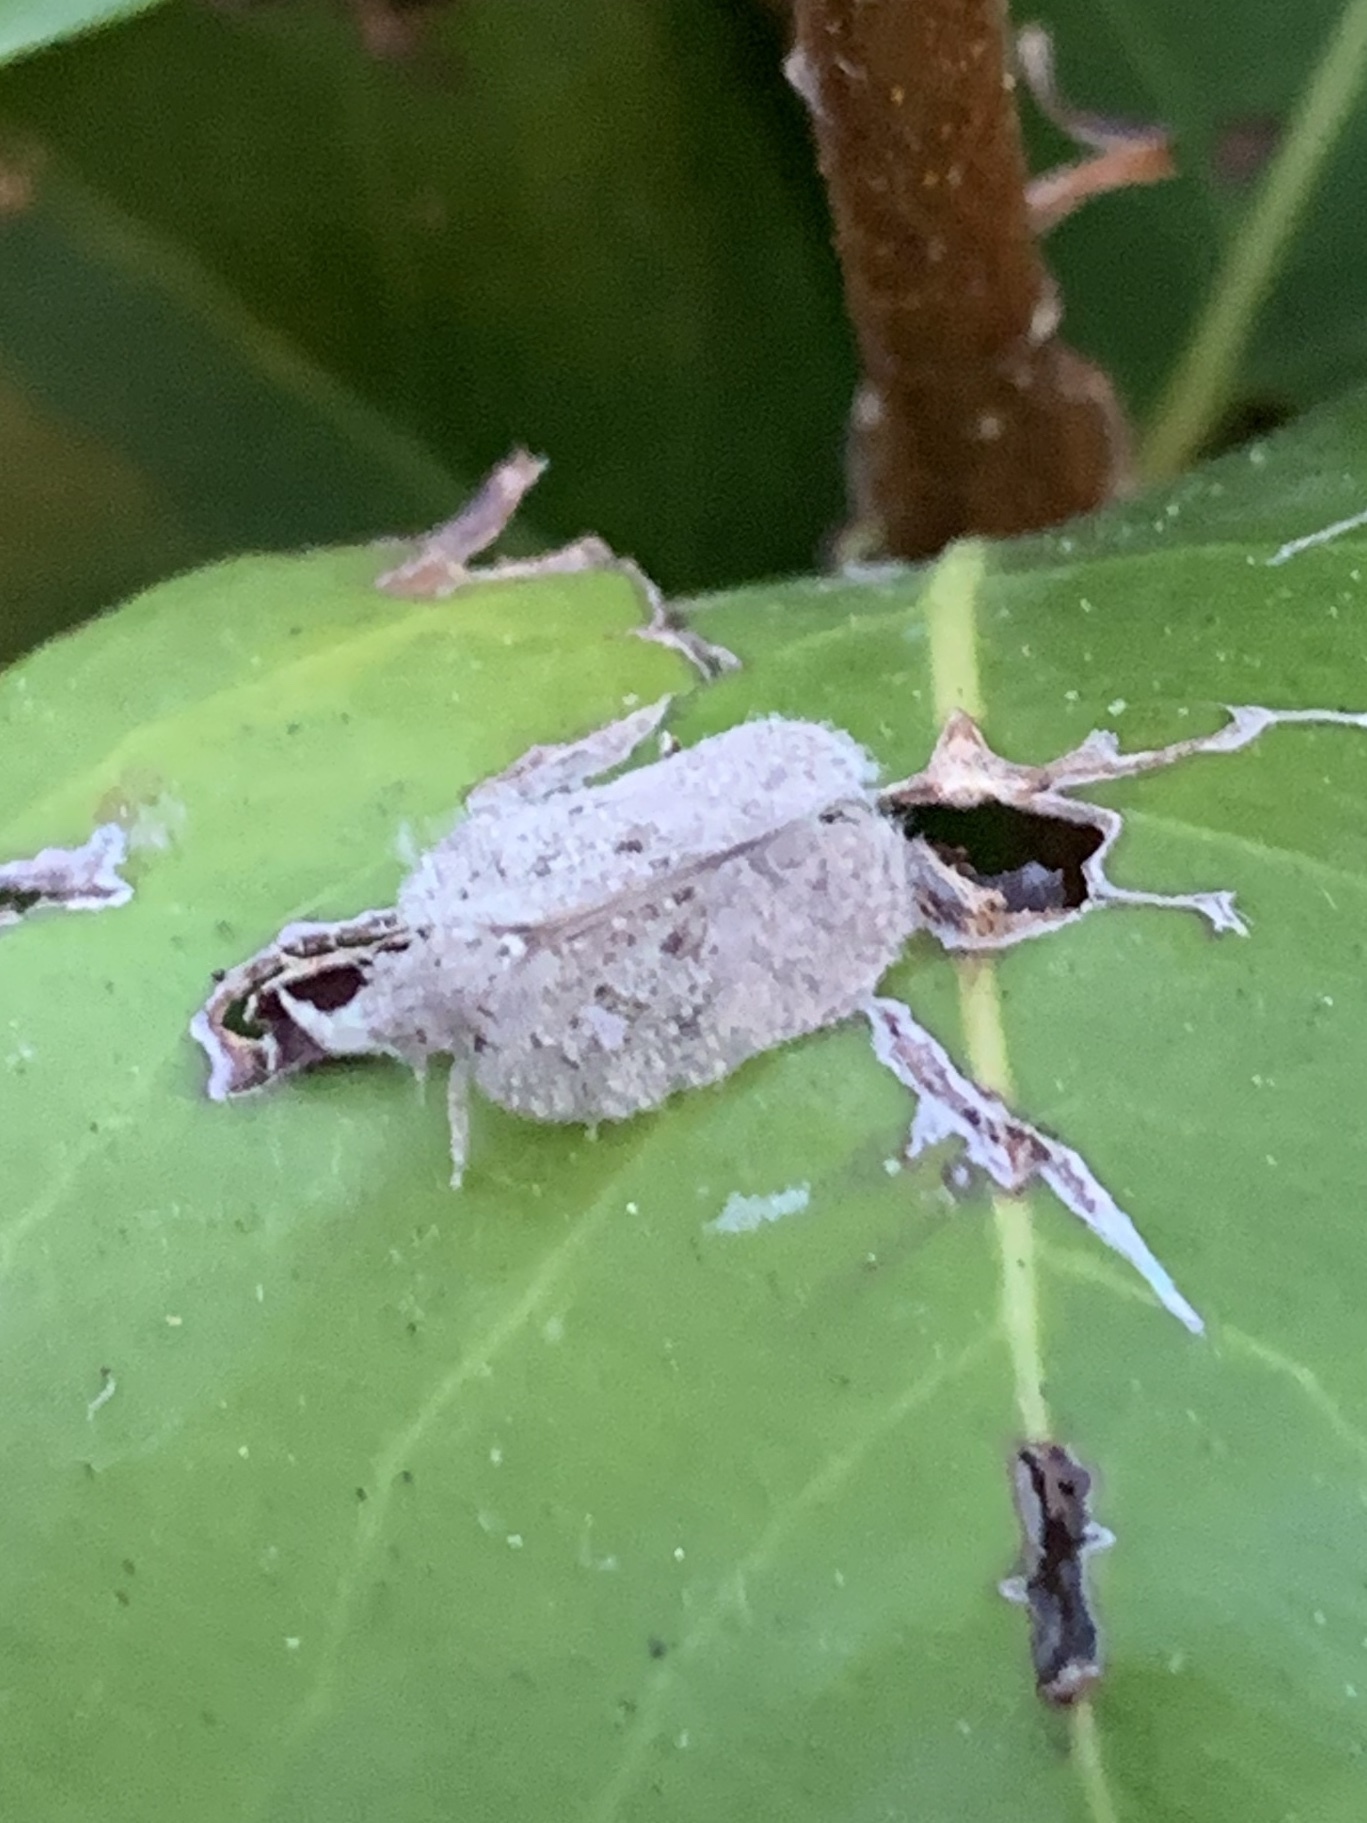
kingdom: Animalia
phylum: Arthropoda
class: Insecta
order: Hemiptera
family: Flatidae
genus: Flatoidinus
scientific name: Flatoidinus punctatus
